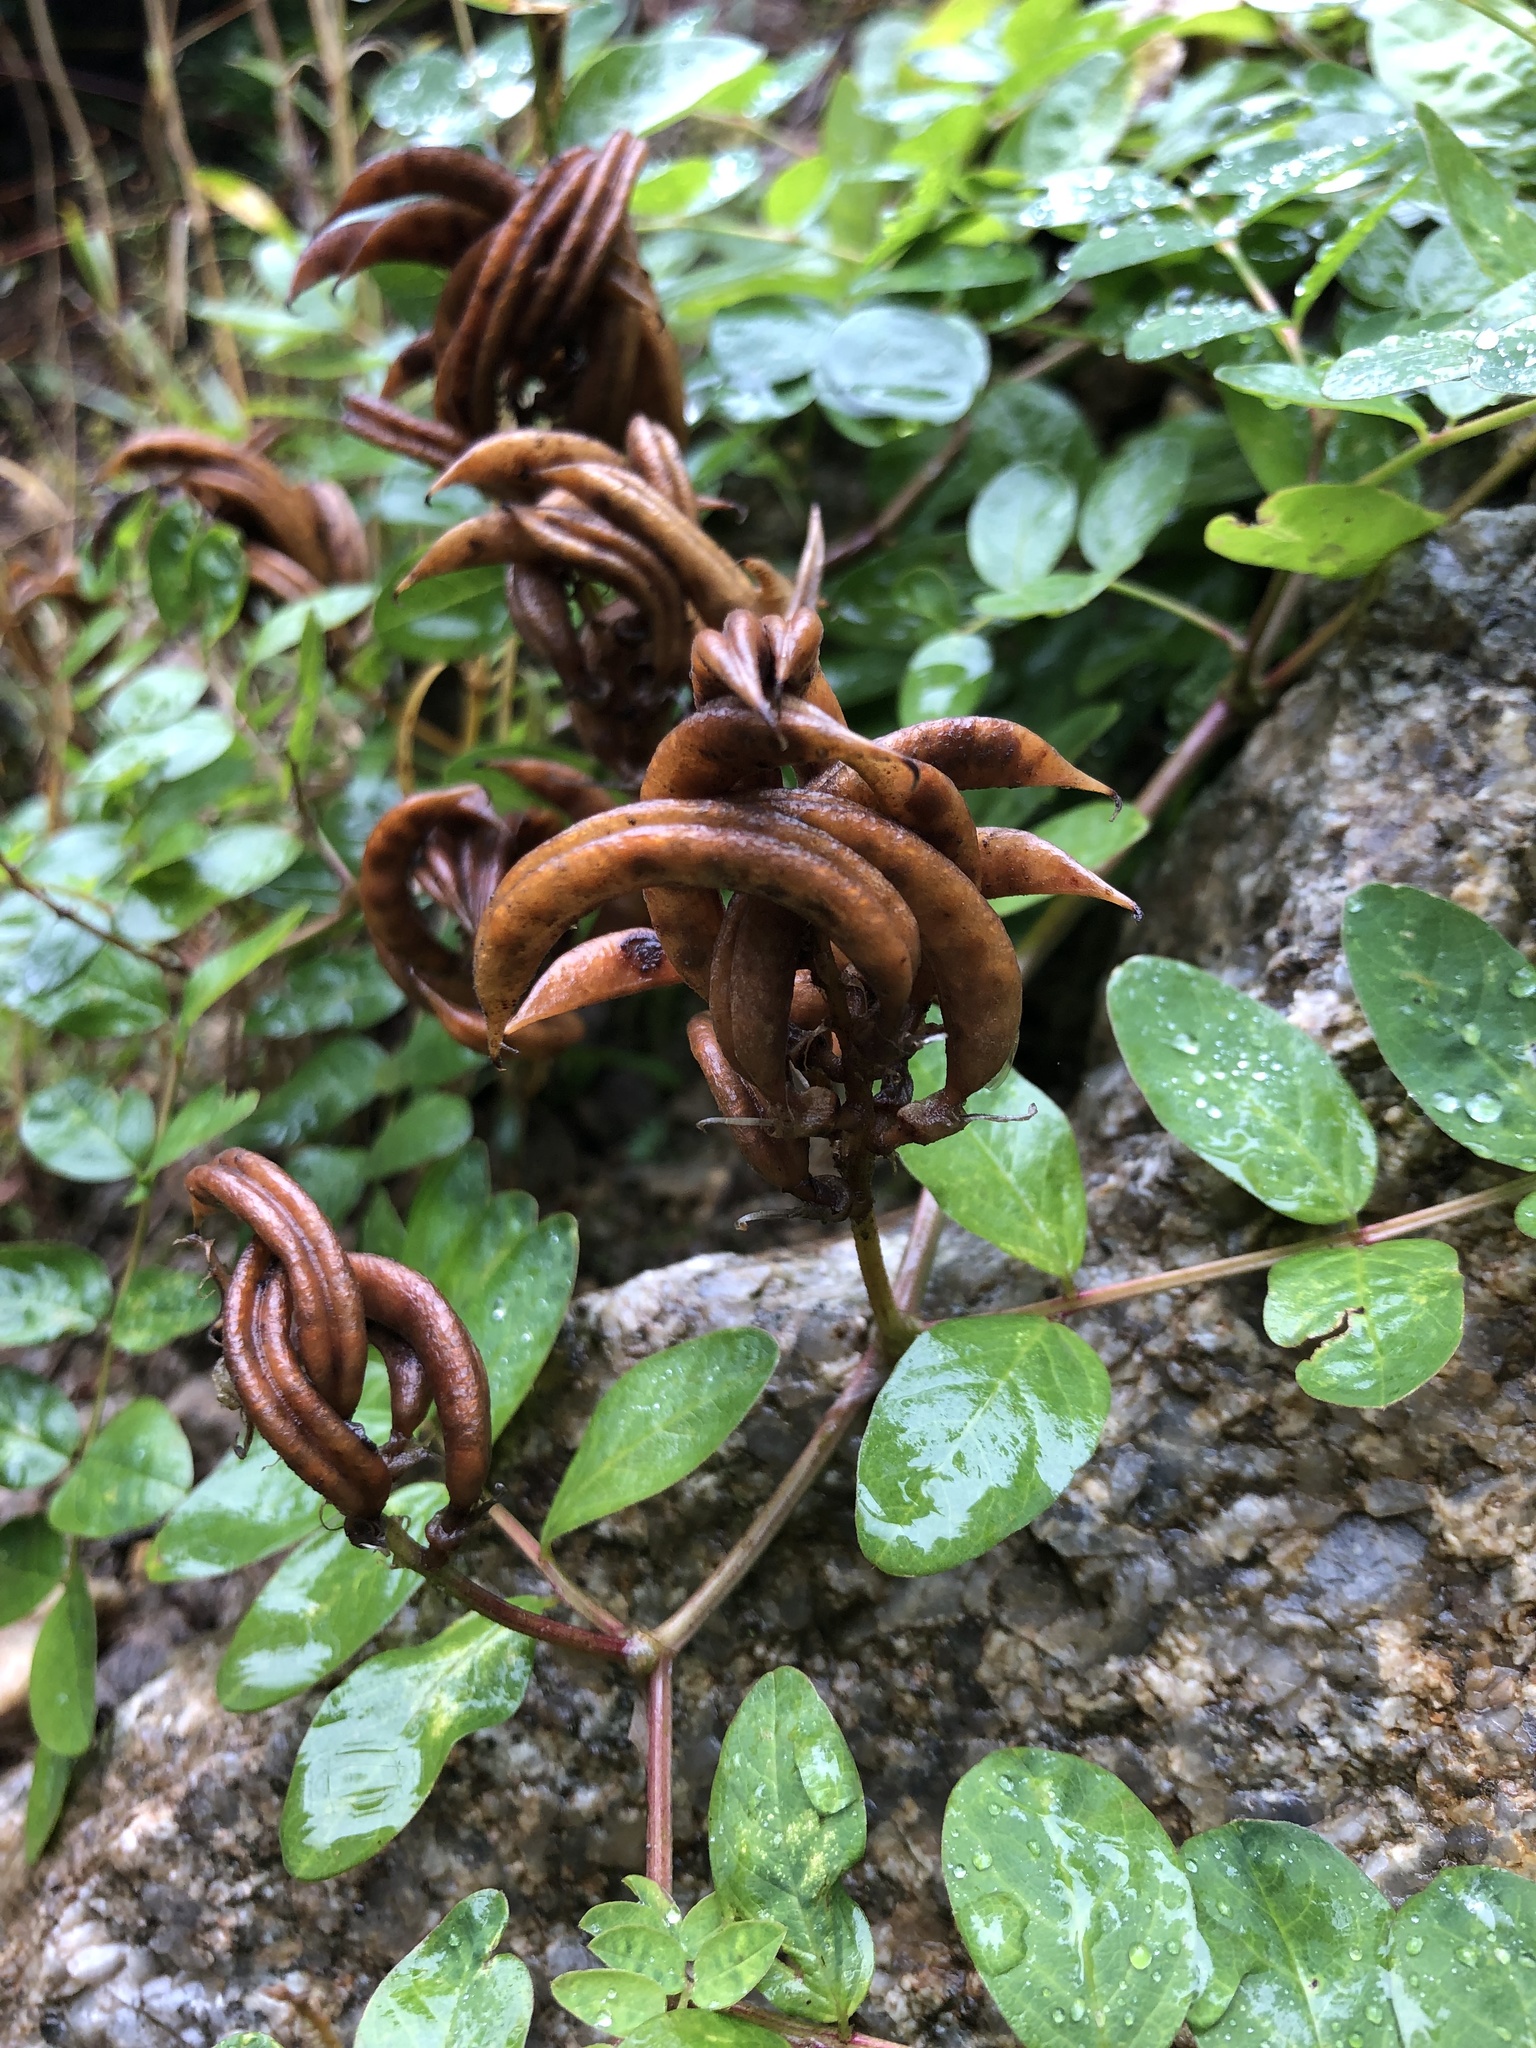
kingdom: Plantae
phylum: Tracheophyta
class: Magnoliopsida
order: Fabales
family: Fabaceae
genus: Astragalus
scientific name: Astragalus glycyphyllos
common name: Wild liquorice
